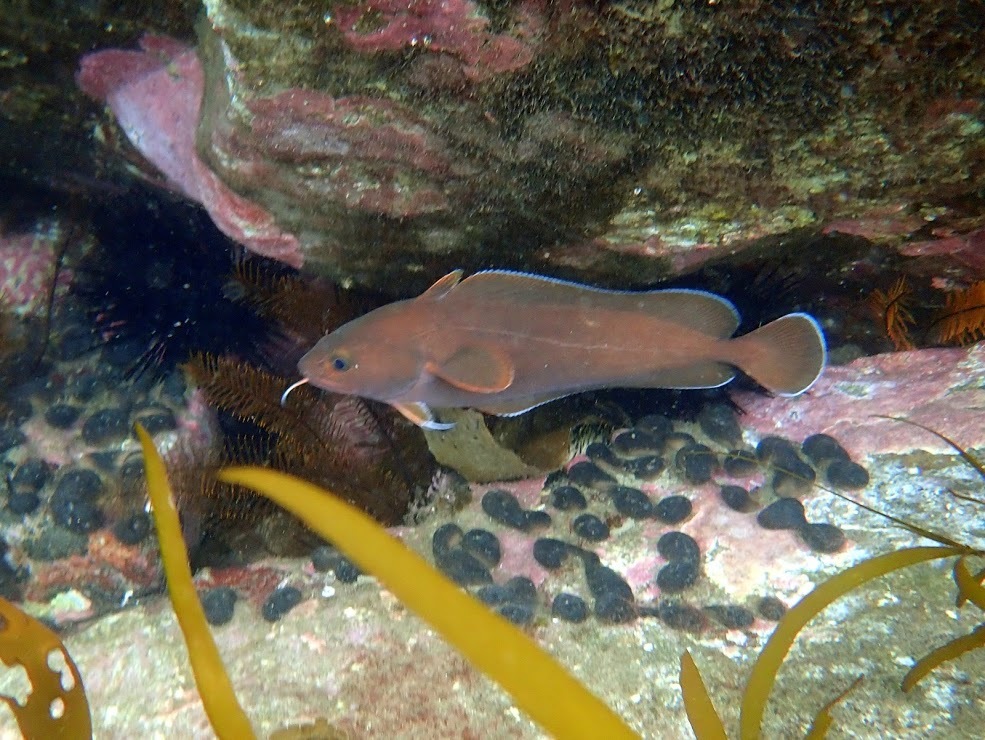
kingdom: Animalia
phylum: Chordata
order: Gadiformes
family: Moridae
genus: Lotella
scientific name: Lotella rhacina
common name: Rock cod
